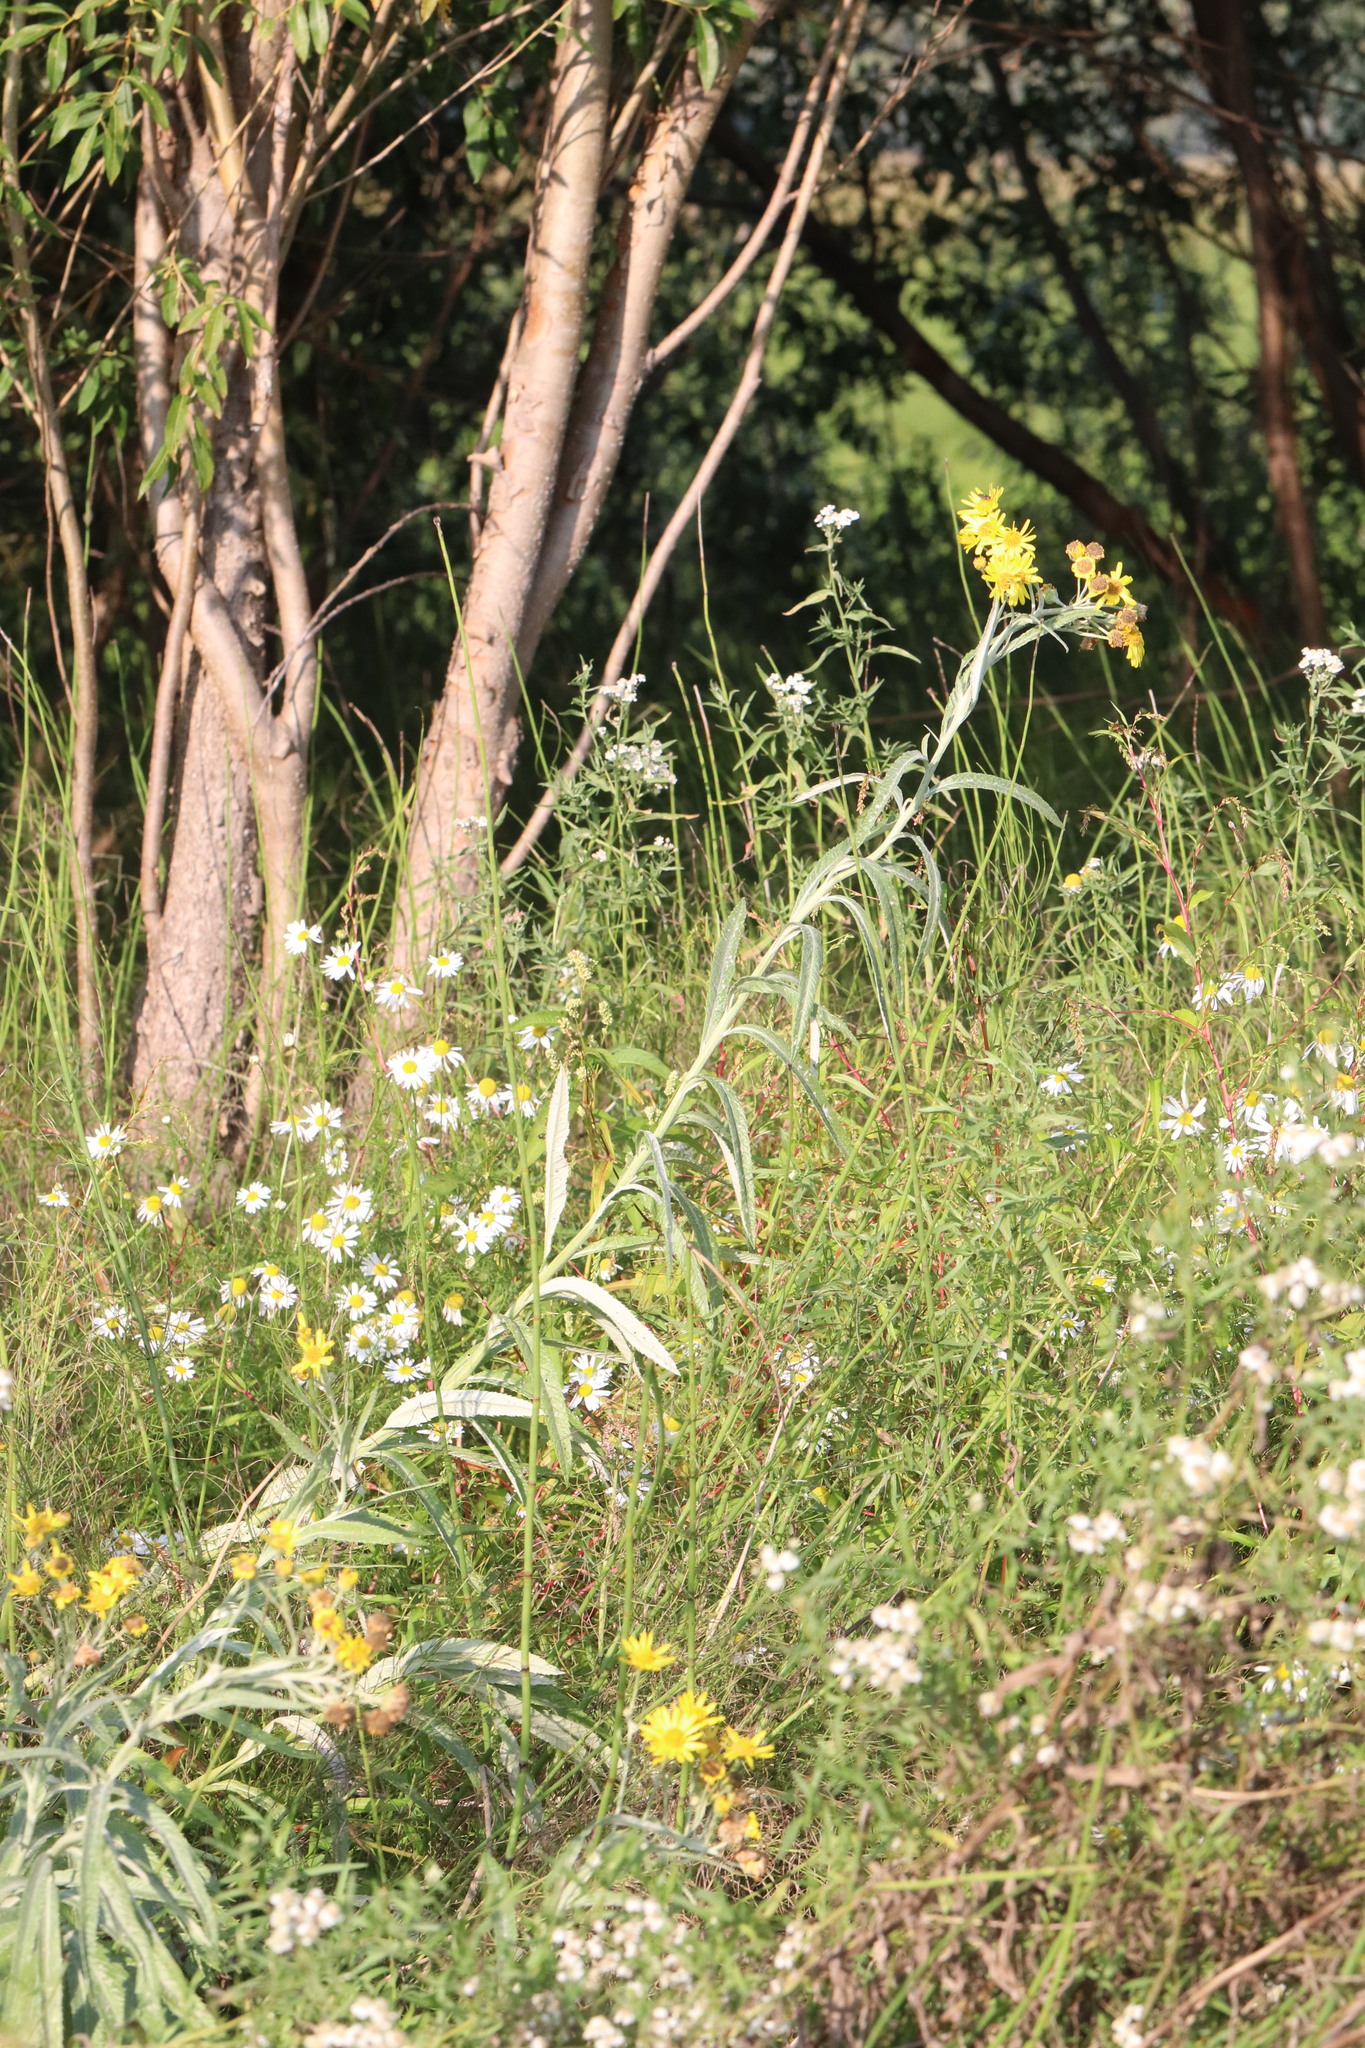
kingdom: Plantae
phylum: Tracheophyta
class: Magnoliopsida
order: Asterales
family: Asteraceae
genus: Jacobaea
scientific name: Jacobaea paludosa
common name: Fen ragwort
